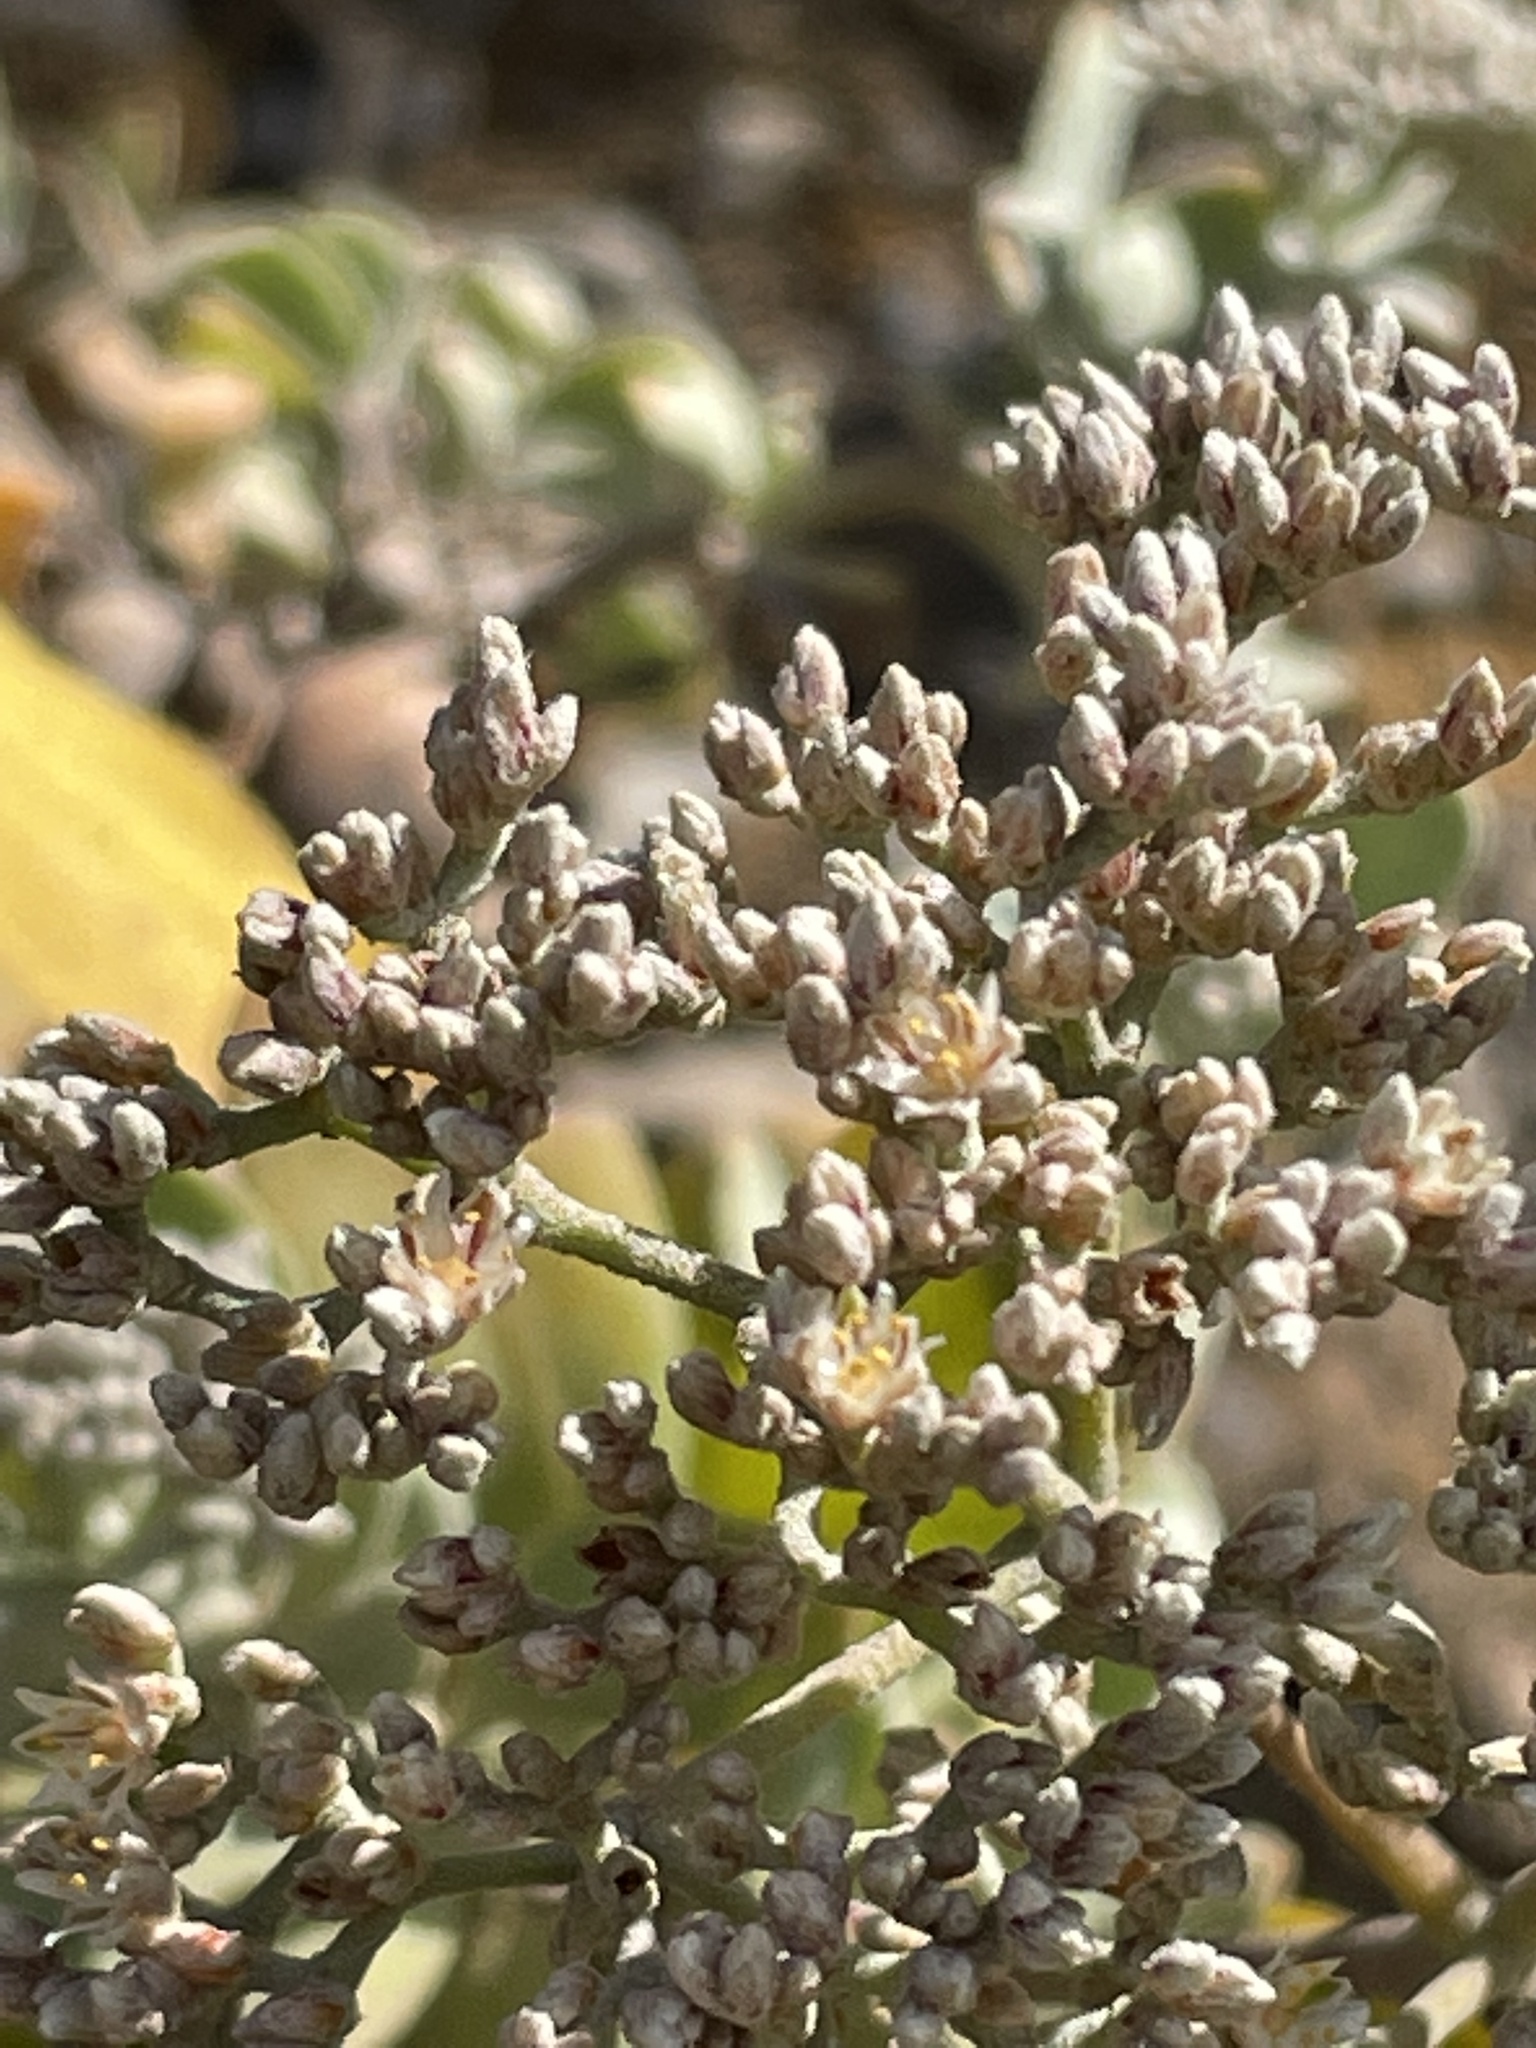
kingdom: Plantae
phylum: Tracheophyta
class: Magnoliopsida
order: Caryophyllales
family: Caryophyllaceae
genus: Polycarpaea
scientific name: Polycarpaea gayi
